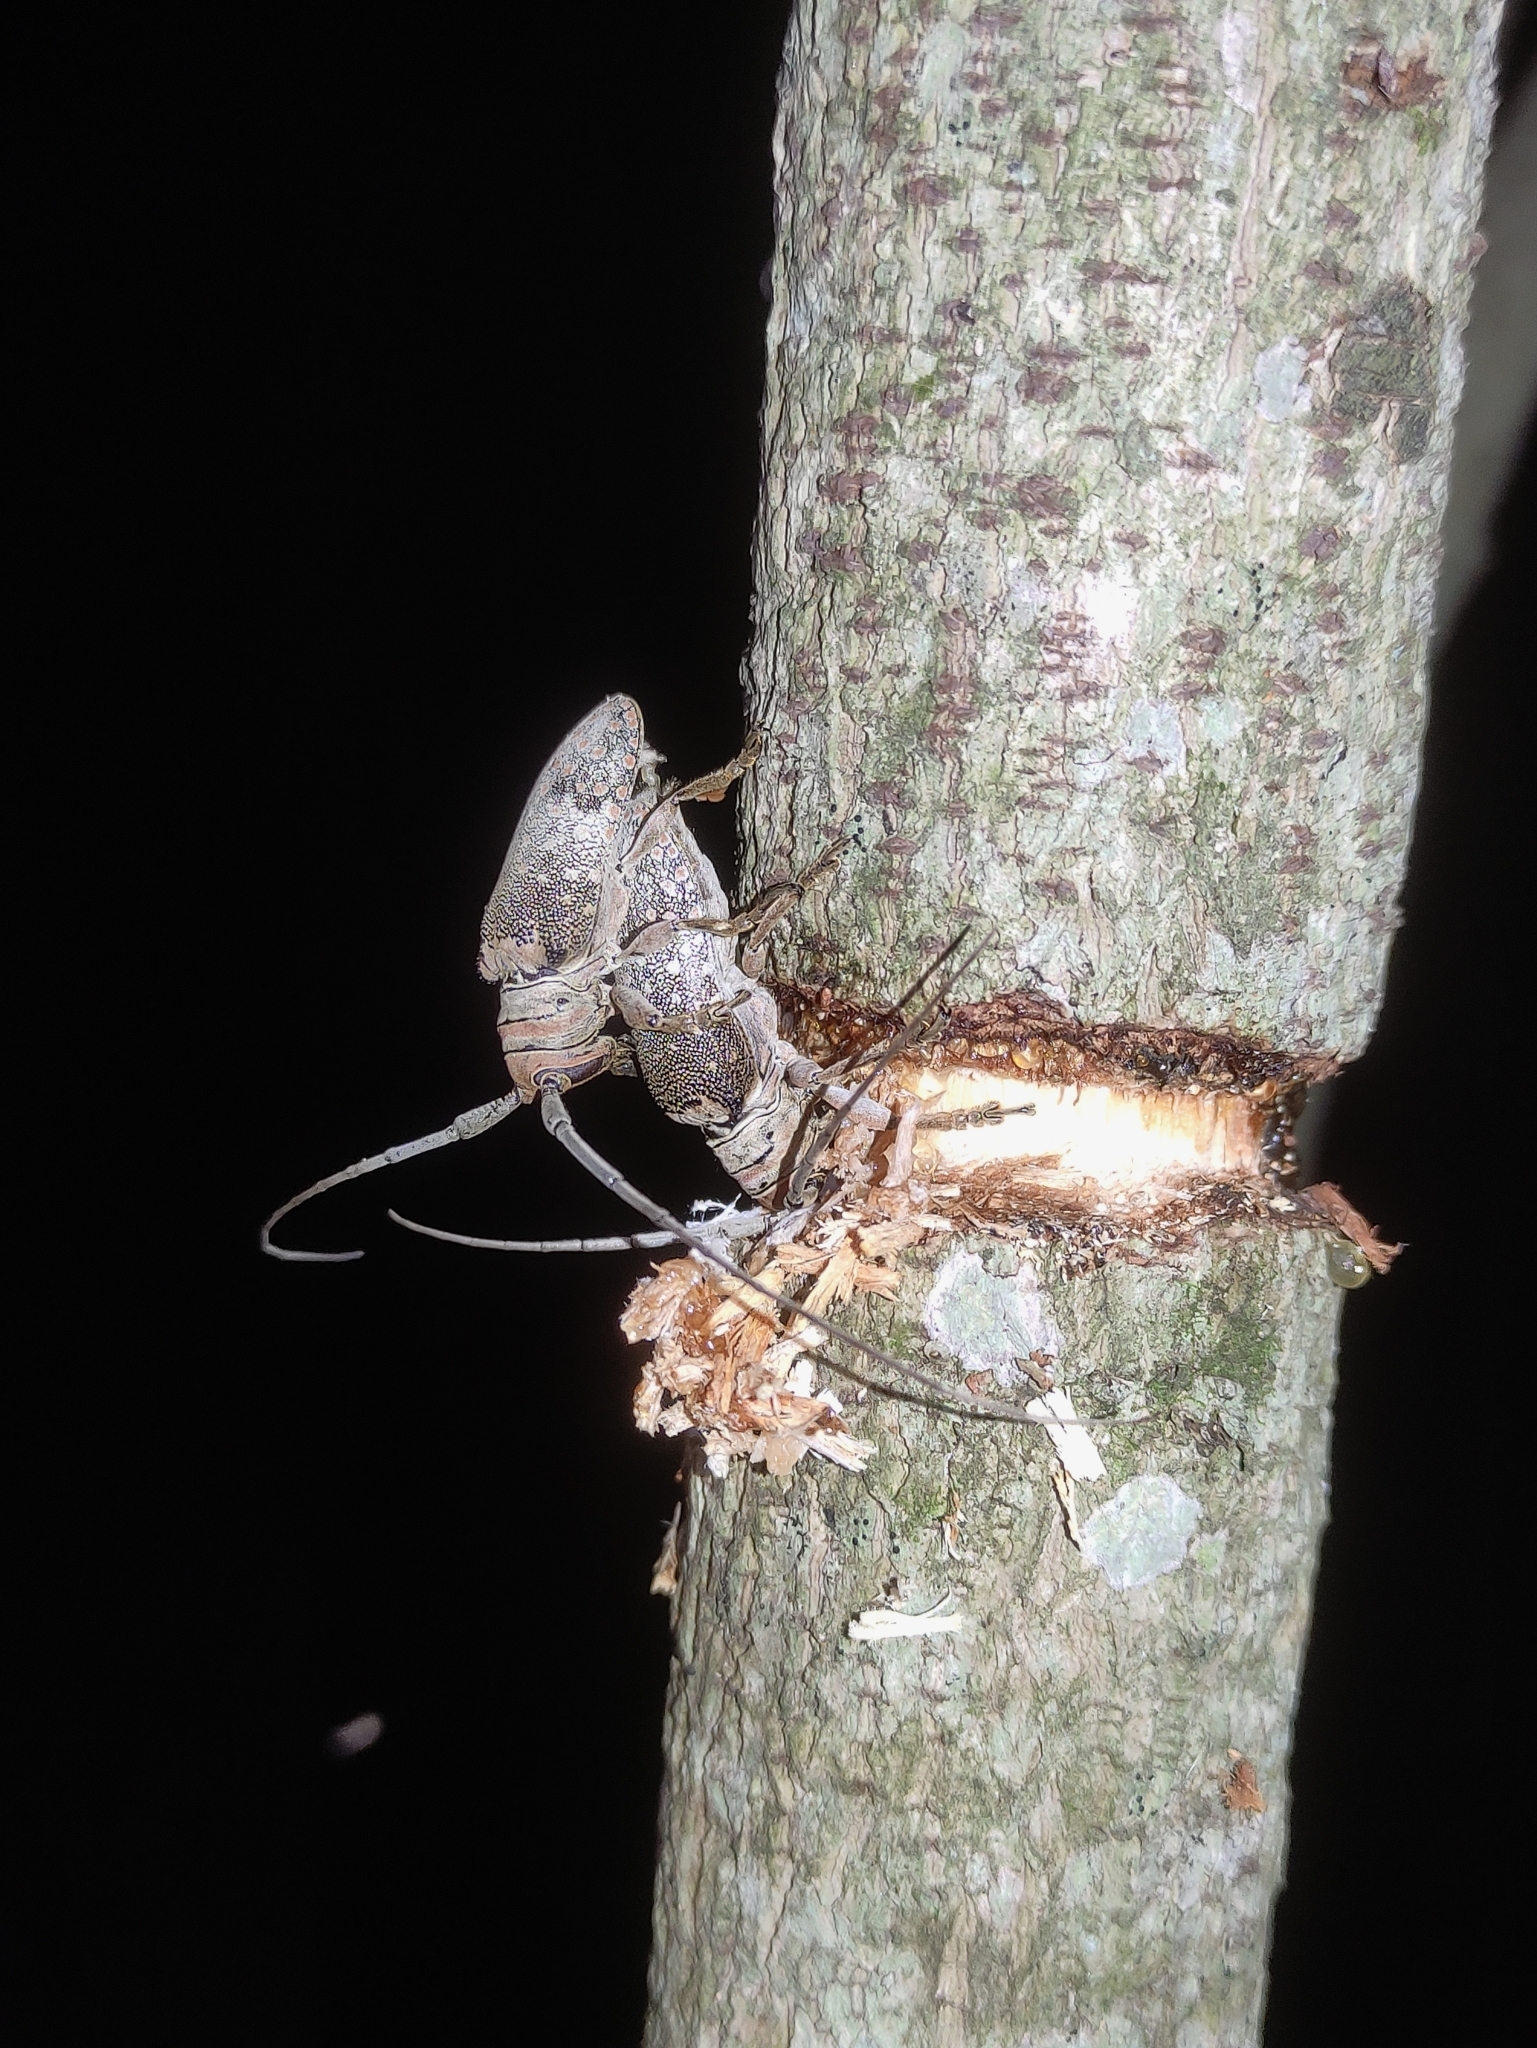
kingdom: Animalia
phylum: Arthropoda
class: Insecta
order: Coleoptera
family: Cerambycidae
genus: Oncideres
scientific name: Oncideres dejeanii
